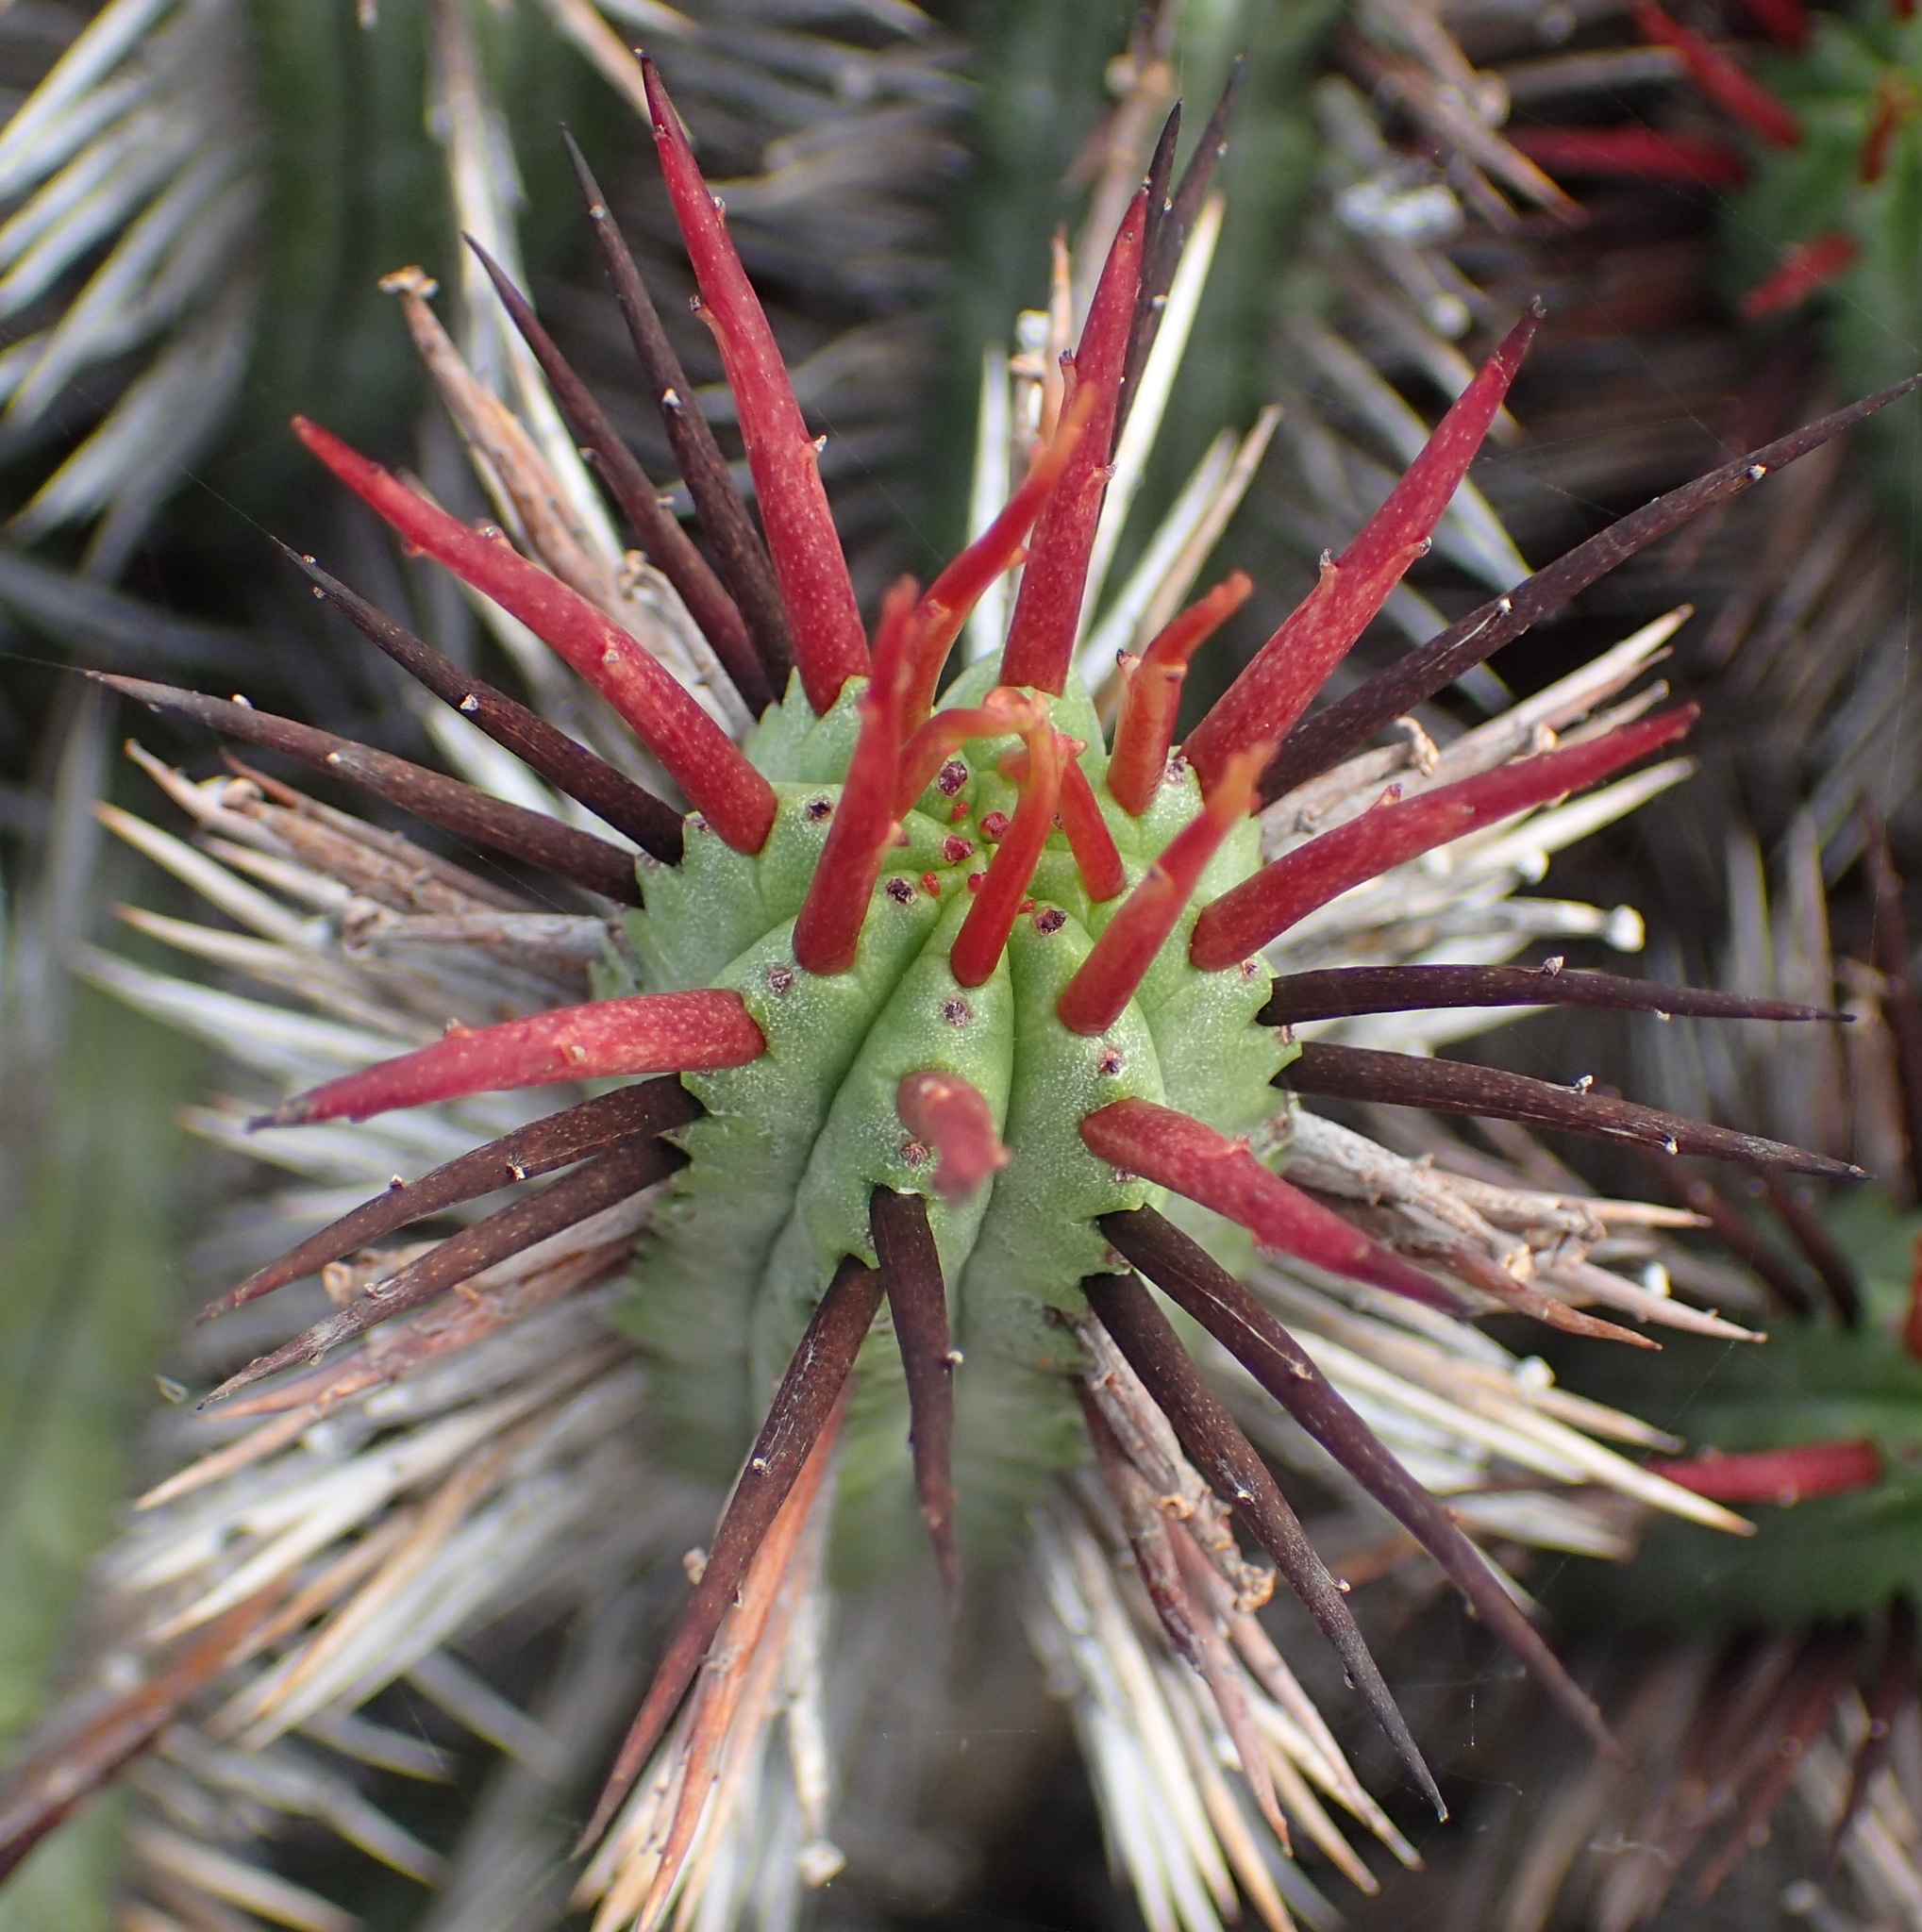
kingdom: Plantae
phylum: Tracheophyta
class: Magnoliopsida
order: Malpighiales
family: Euphorbiaceae
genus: Euphorbia
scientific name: Euphorbia heptagona
